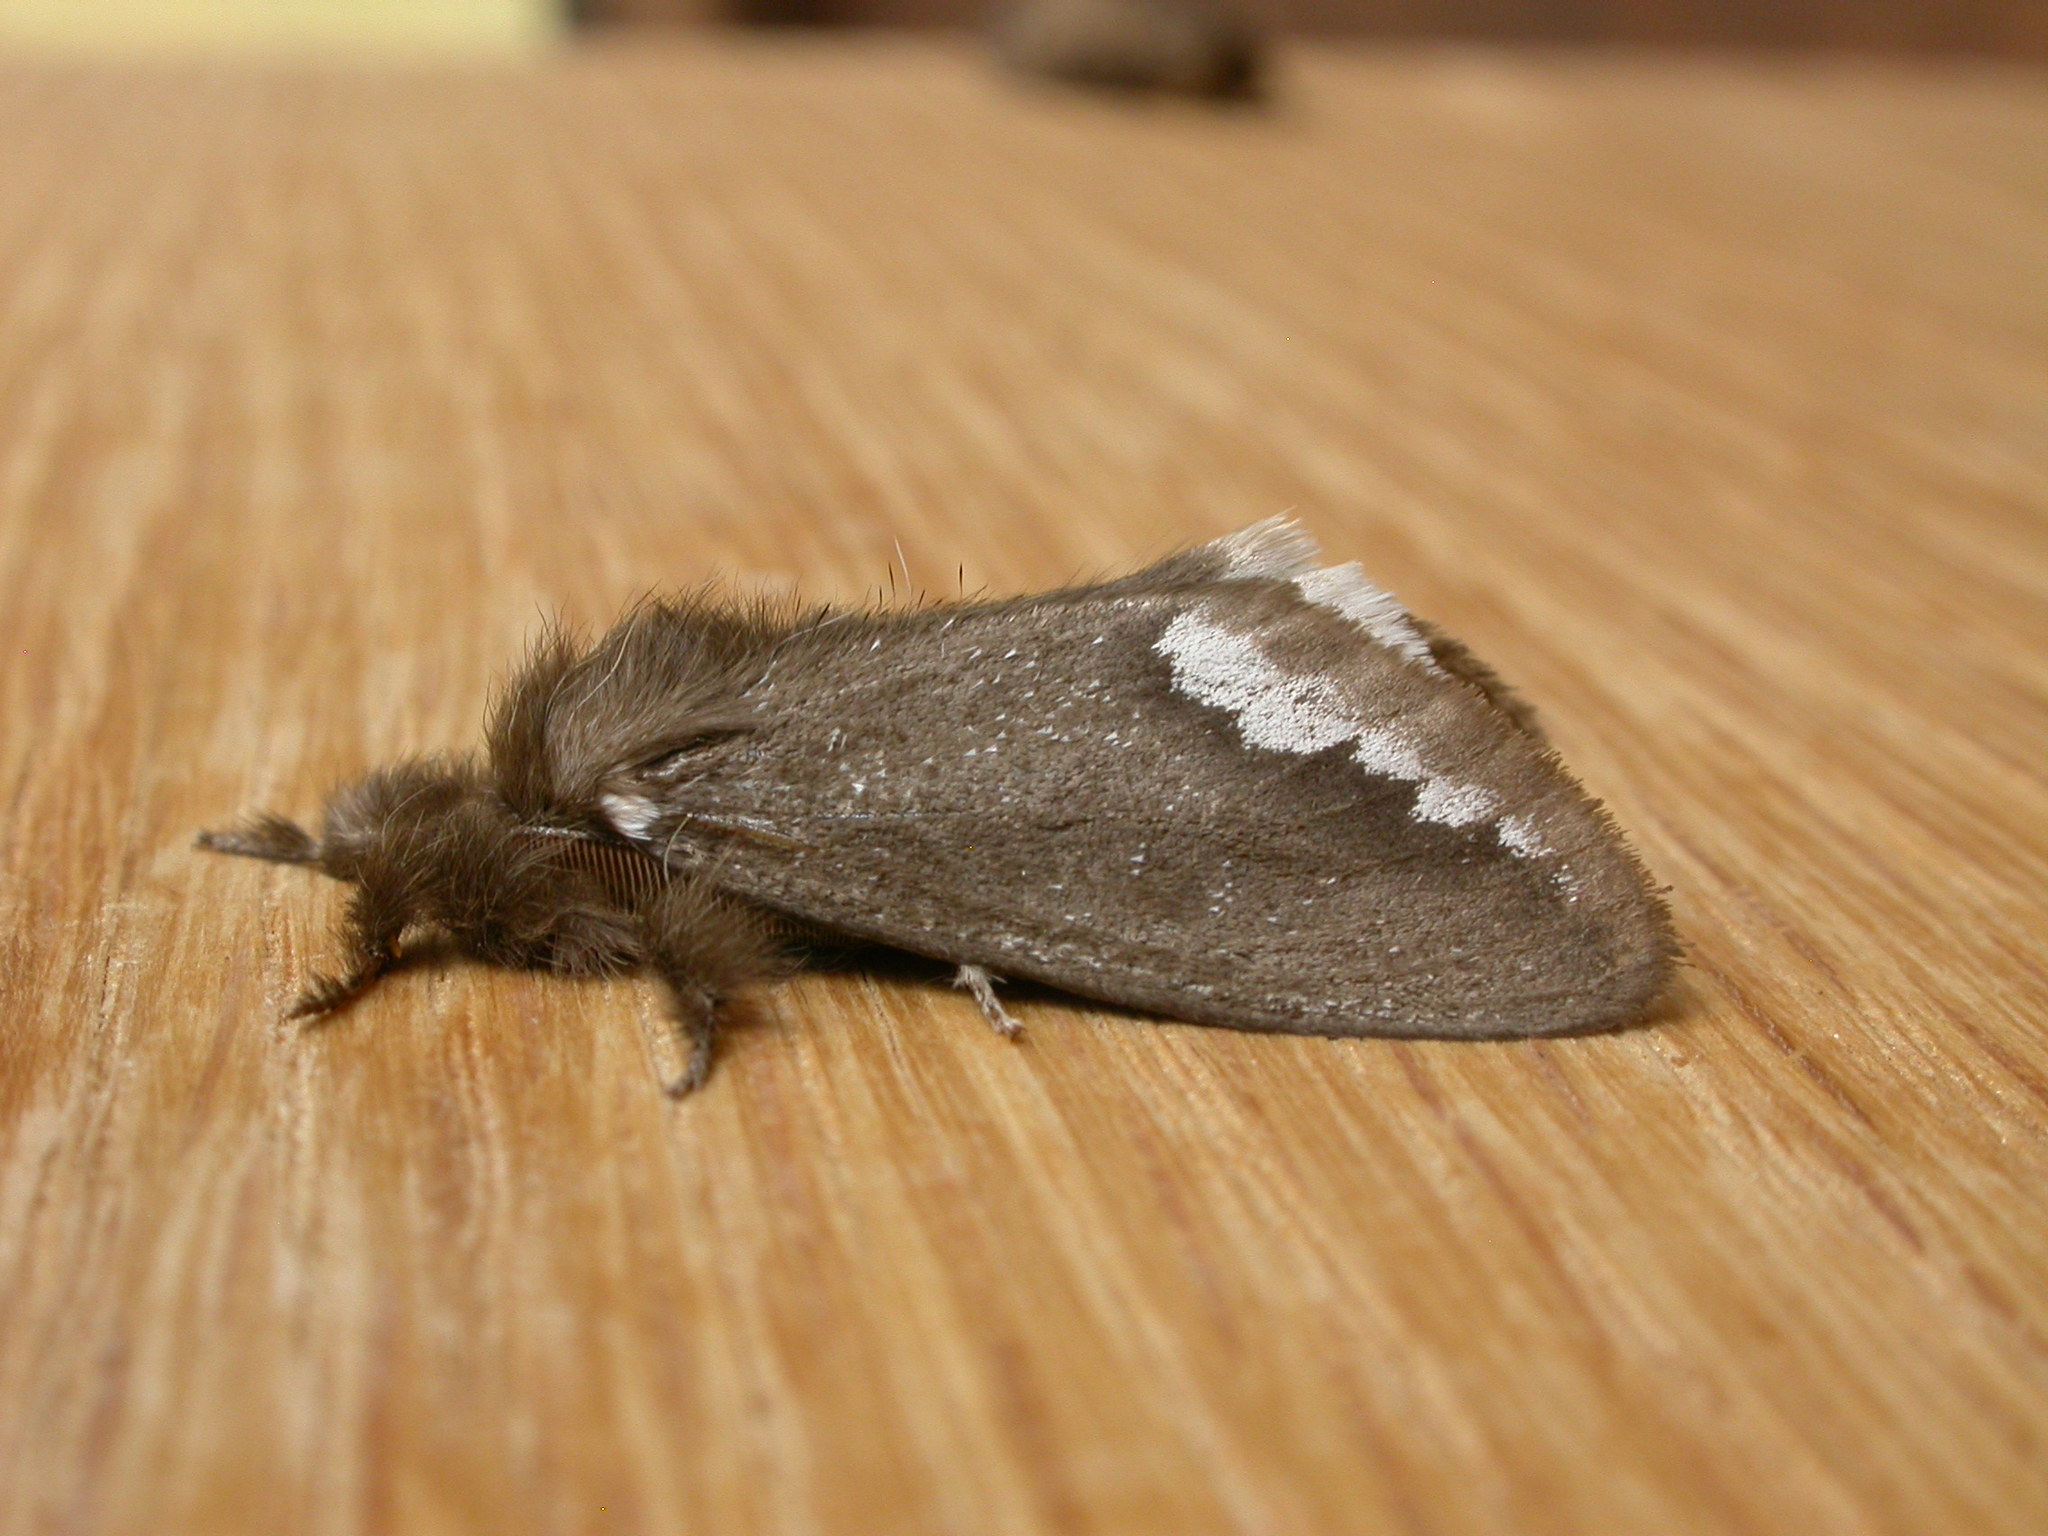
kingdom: Animalia
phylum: Arthropoda
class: Insecta
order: Lepidoptera
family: Erebidae
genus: Euproctis
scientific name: Euproctis
